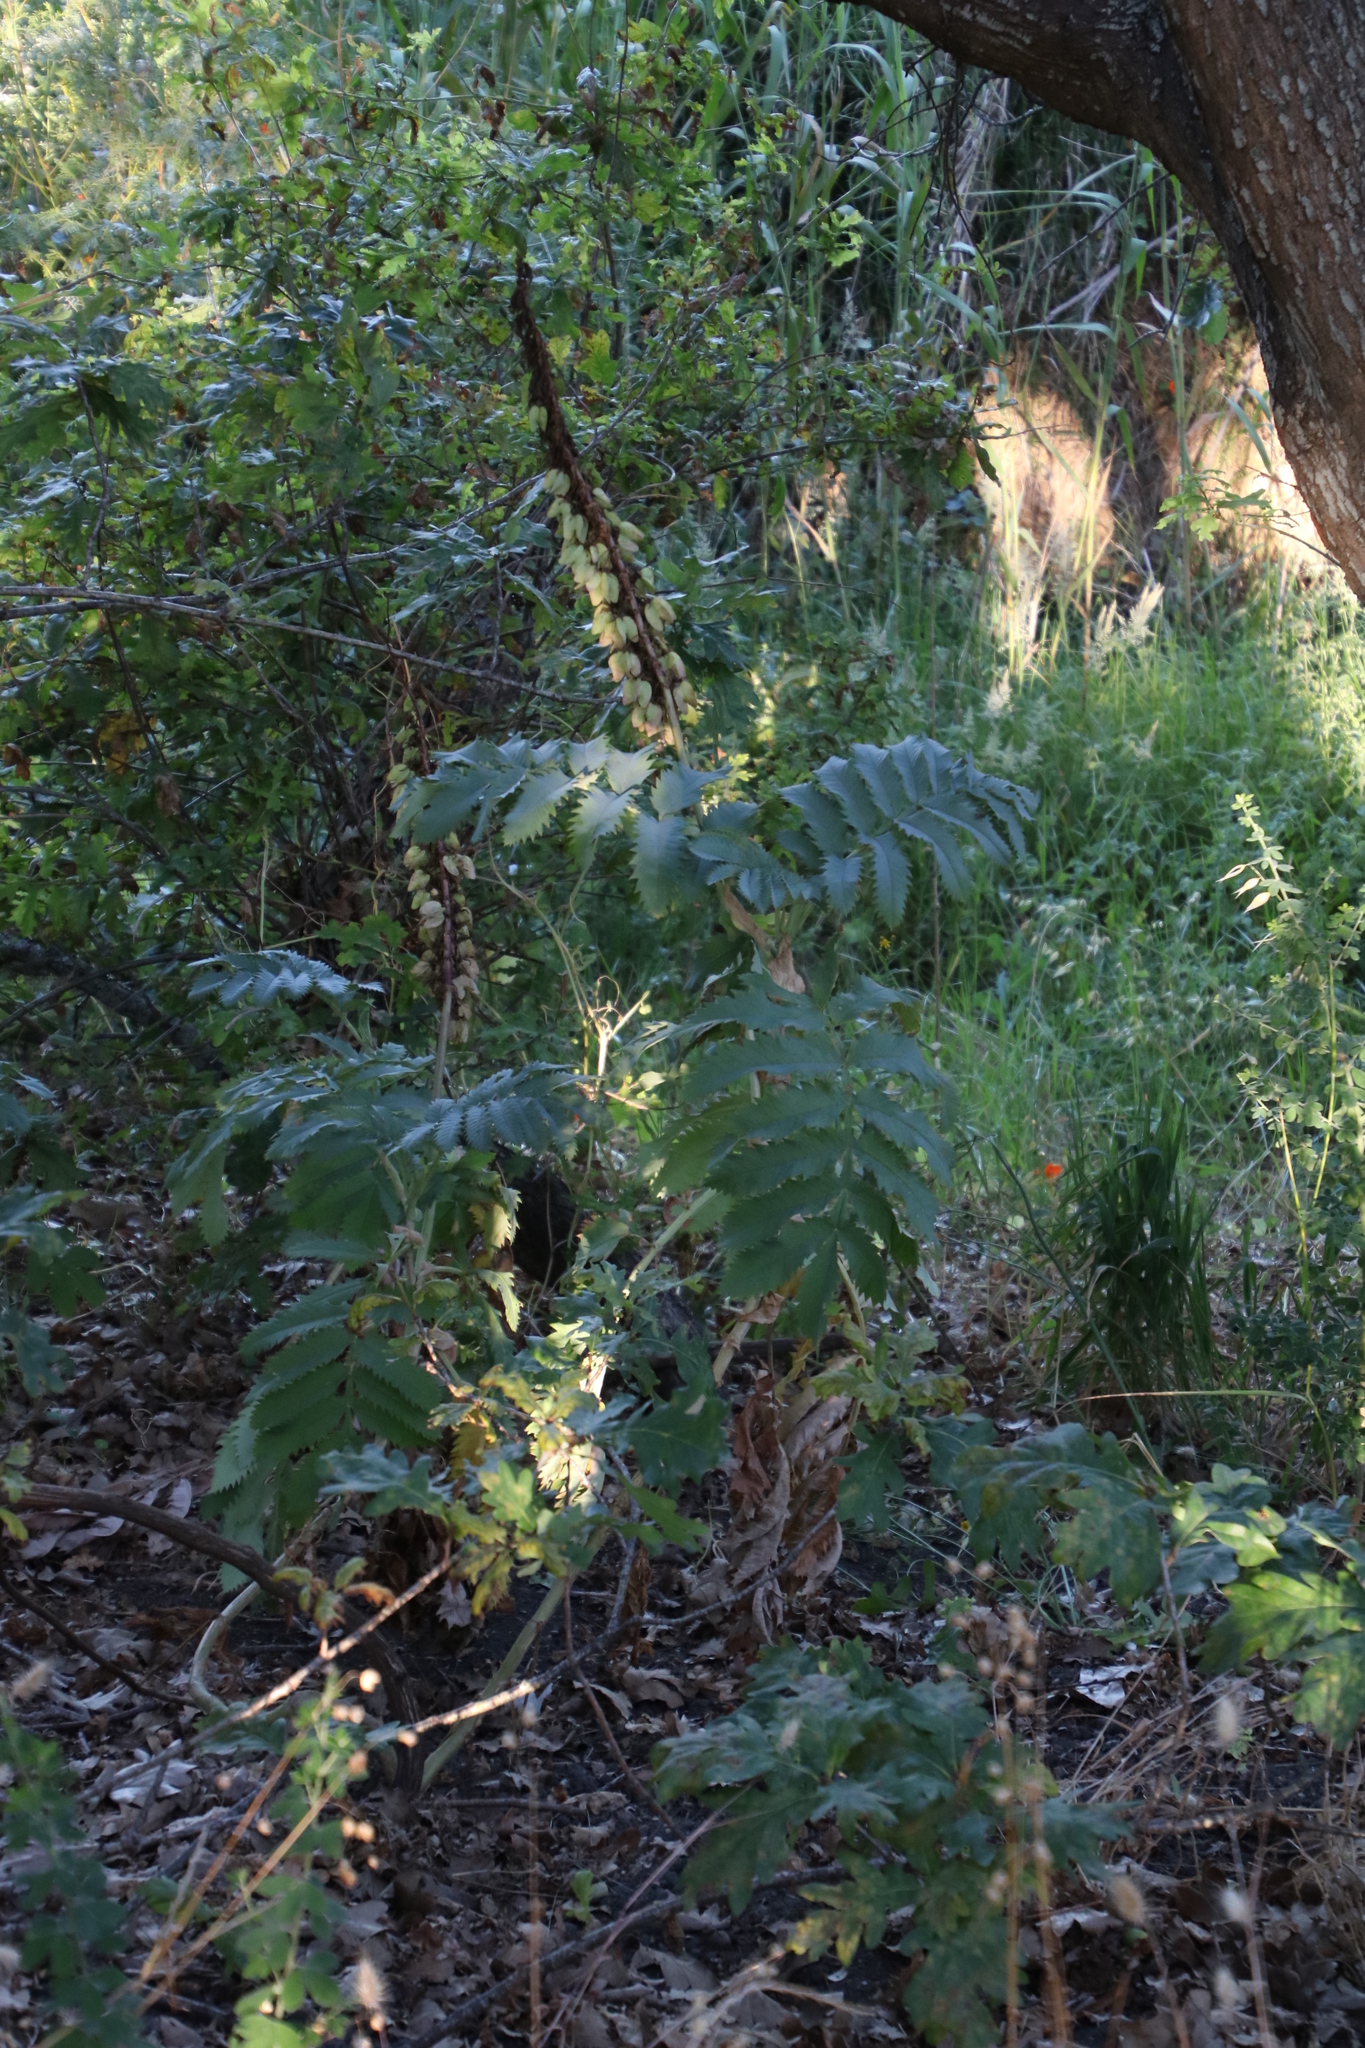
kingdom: Plantae
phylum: Tracheophyta
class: Magnoliopsida
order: Geraniales
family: Melianthaceae
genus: Melianthus
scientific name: Melianthus major
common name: Honey-flower
